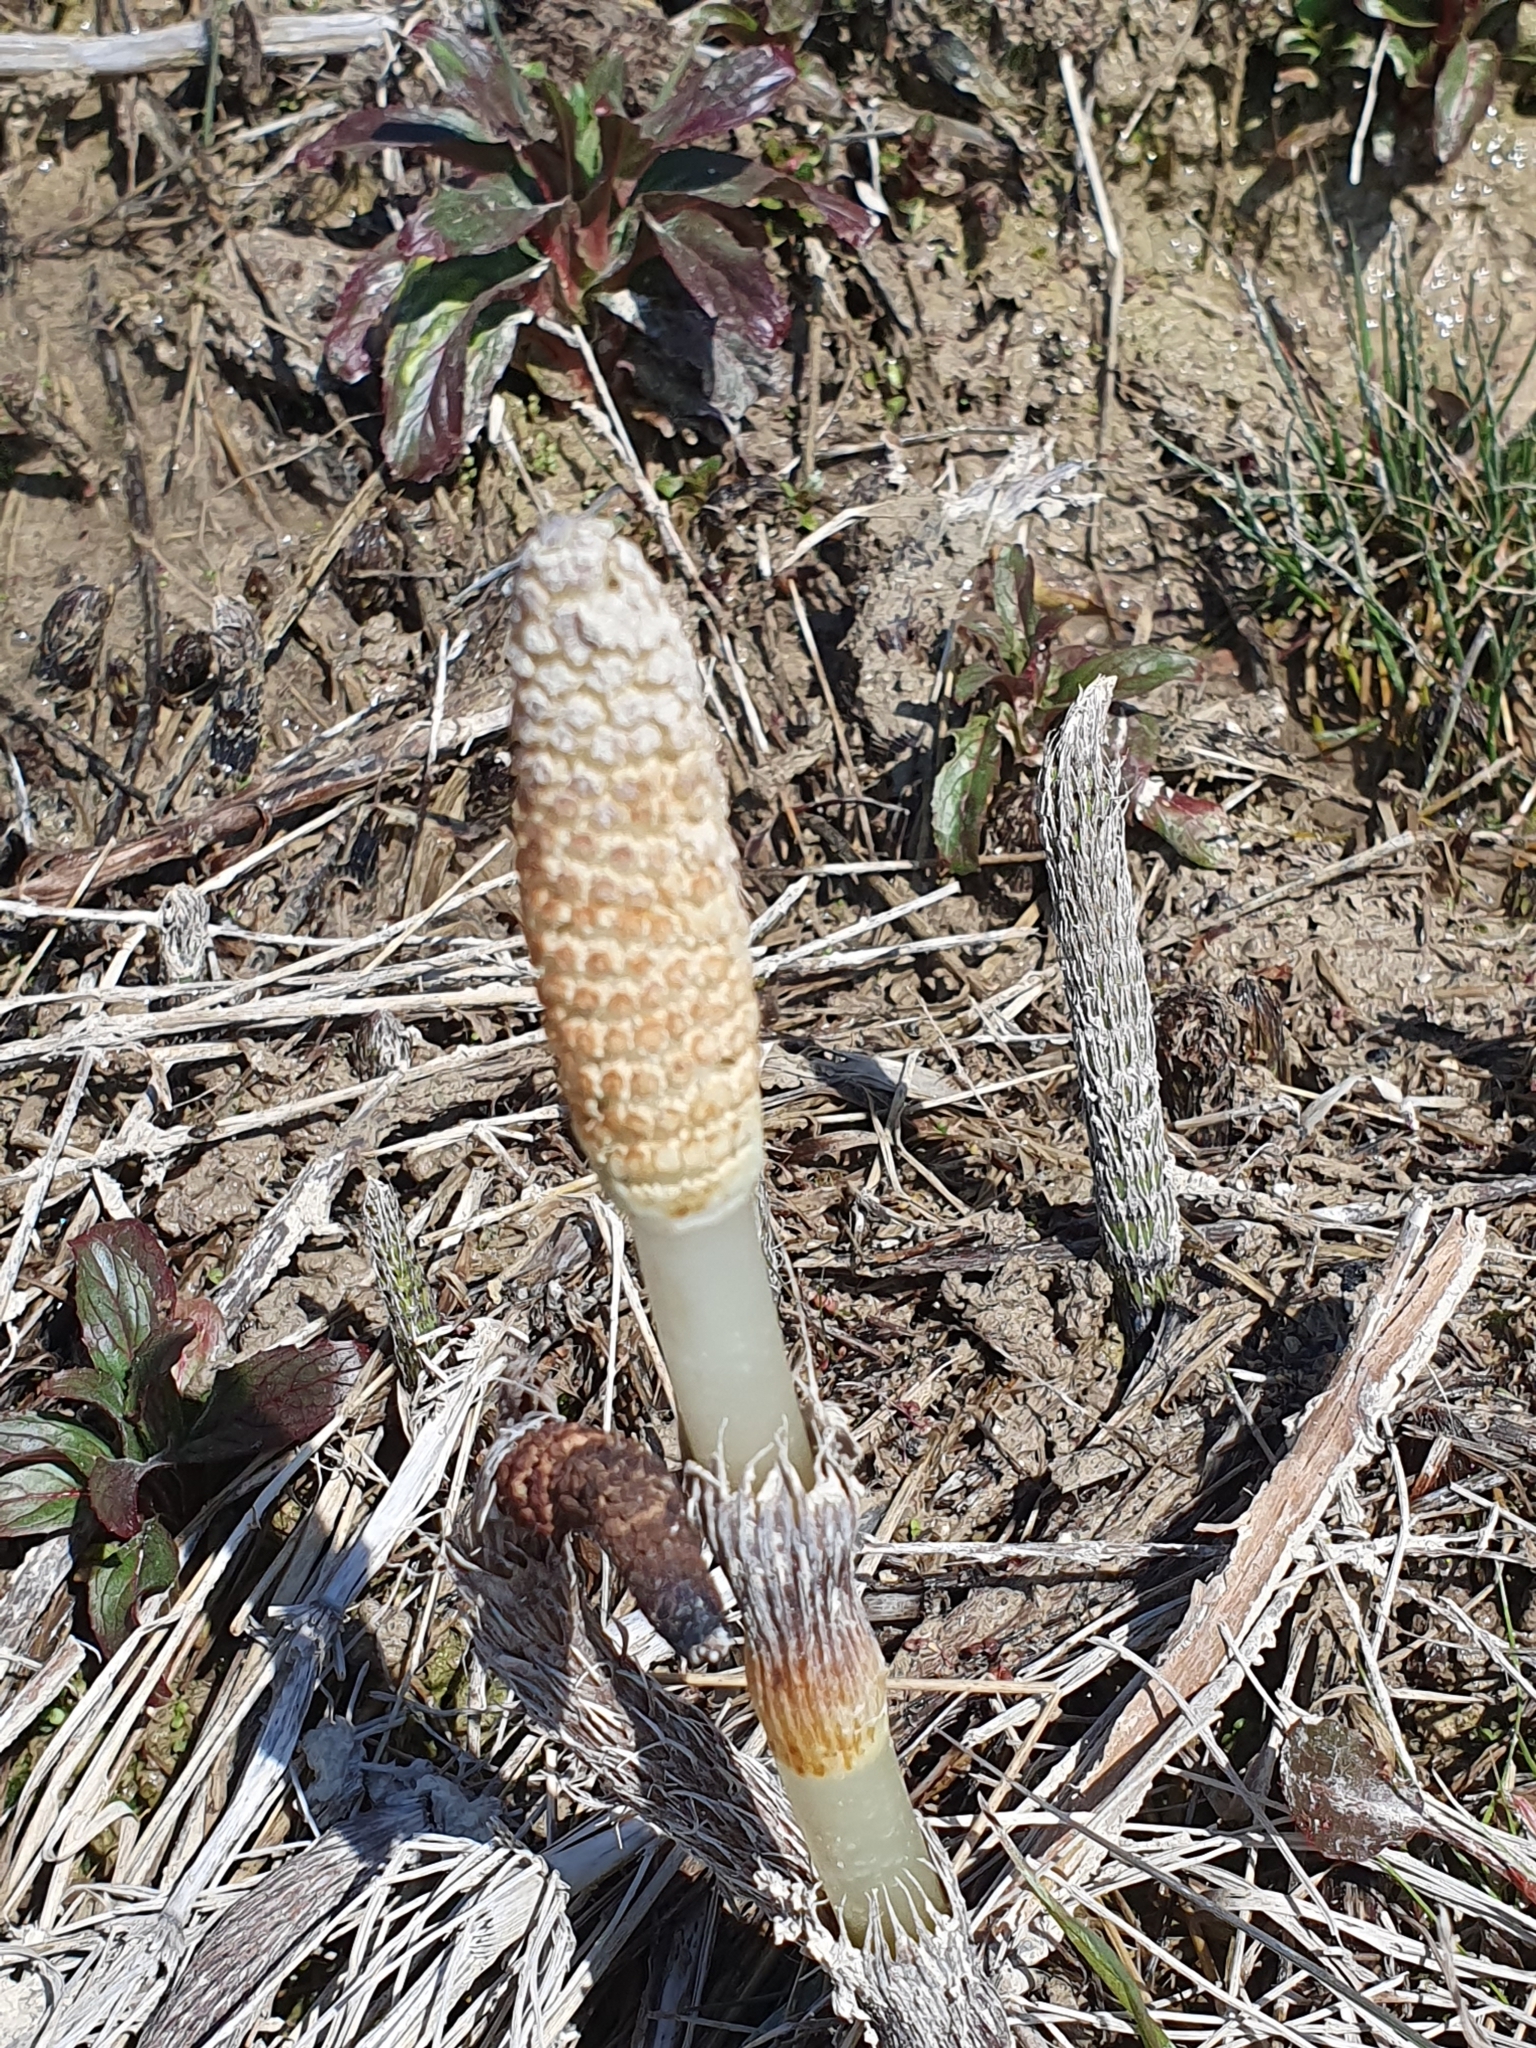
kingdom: Plantae
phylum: Tracheophyta
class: Polypodiopsida
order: Equisetales
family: Equisetaceae
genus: Equisetum
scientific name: Equisetum telmateia
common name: Great horsetail
